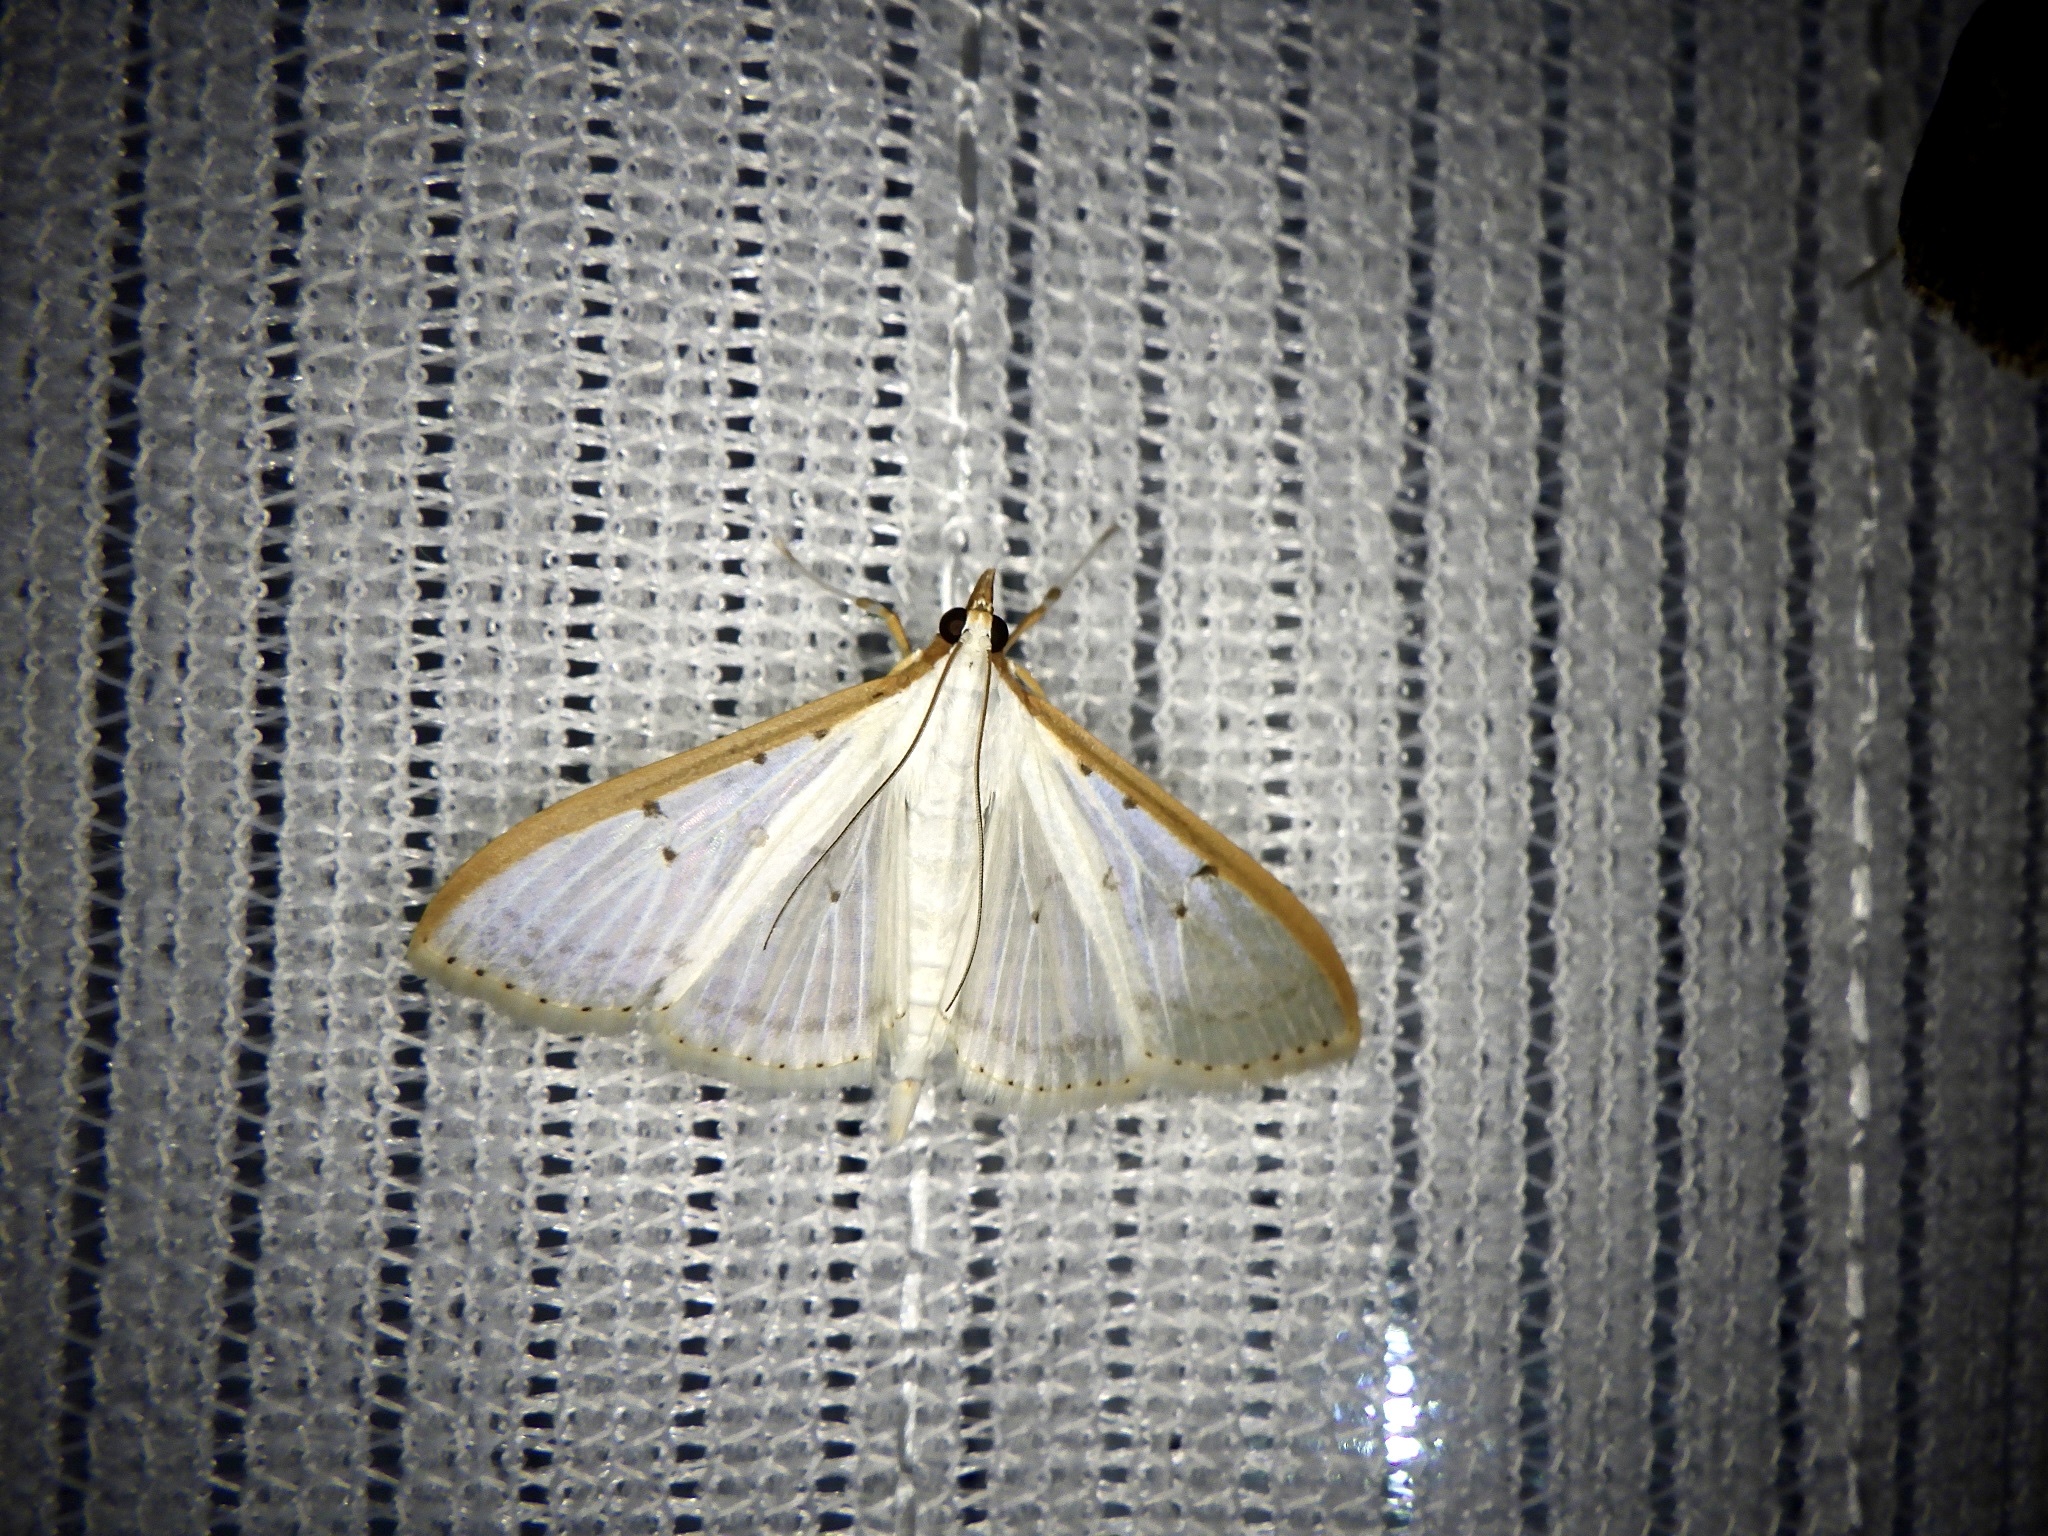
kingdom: Animalia
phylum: Arthropoda
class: Insecta
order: Lepidoptera
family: Crambidae
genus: Palpita
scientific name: Palpita nigropunctalis
